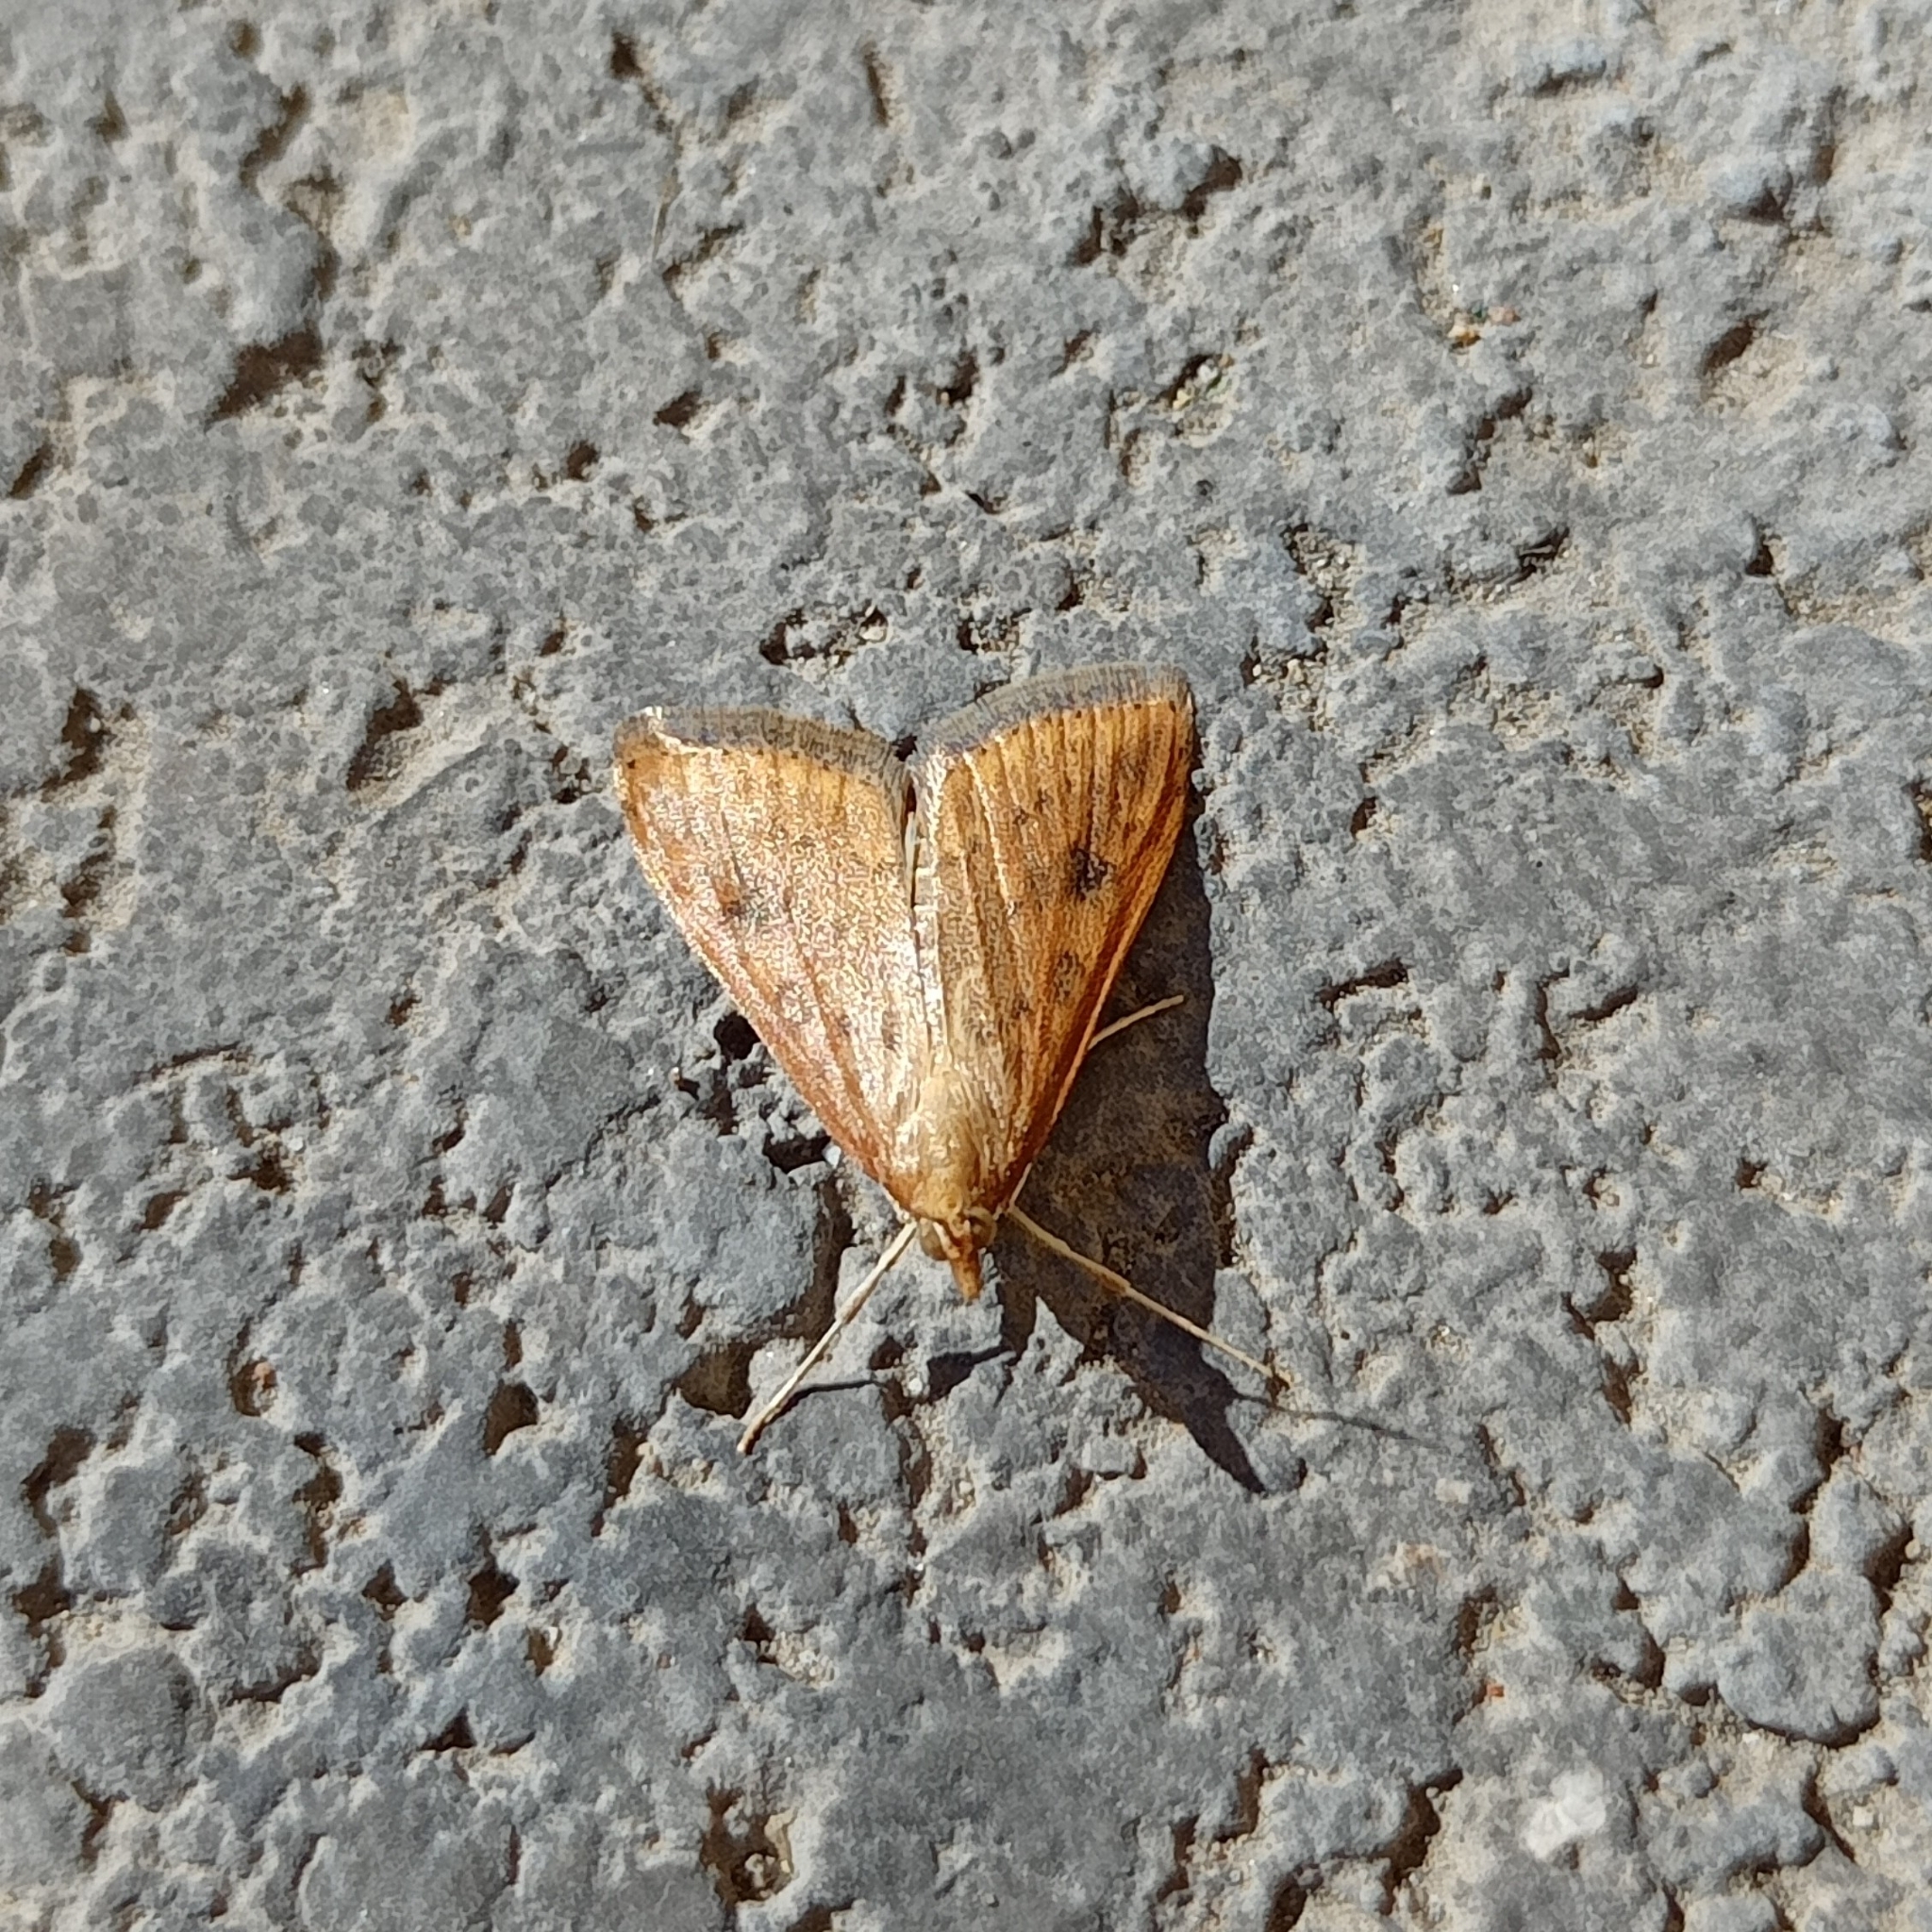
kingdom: Animalia
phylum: Arthropoda
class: Insecta
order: Lepidoptera
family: Crambidae
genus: Udea
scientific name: Udea ferrugalis
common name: Rusty dot
